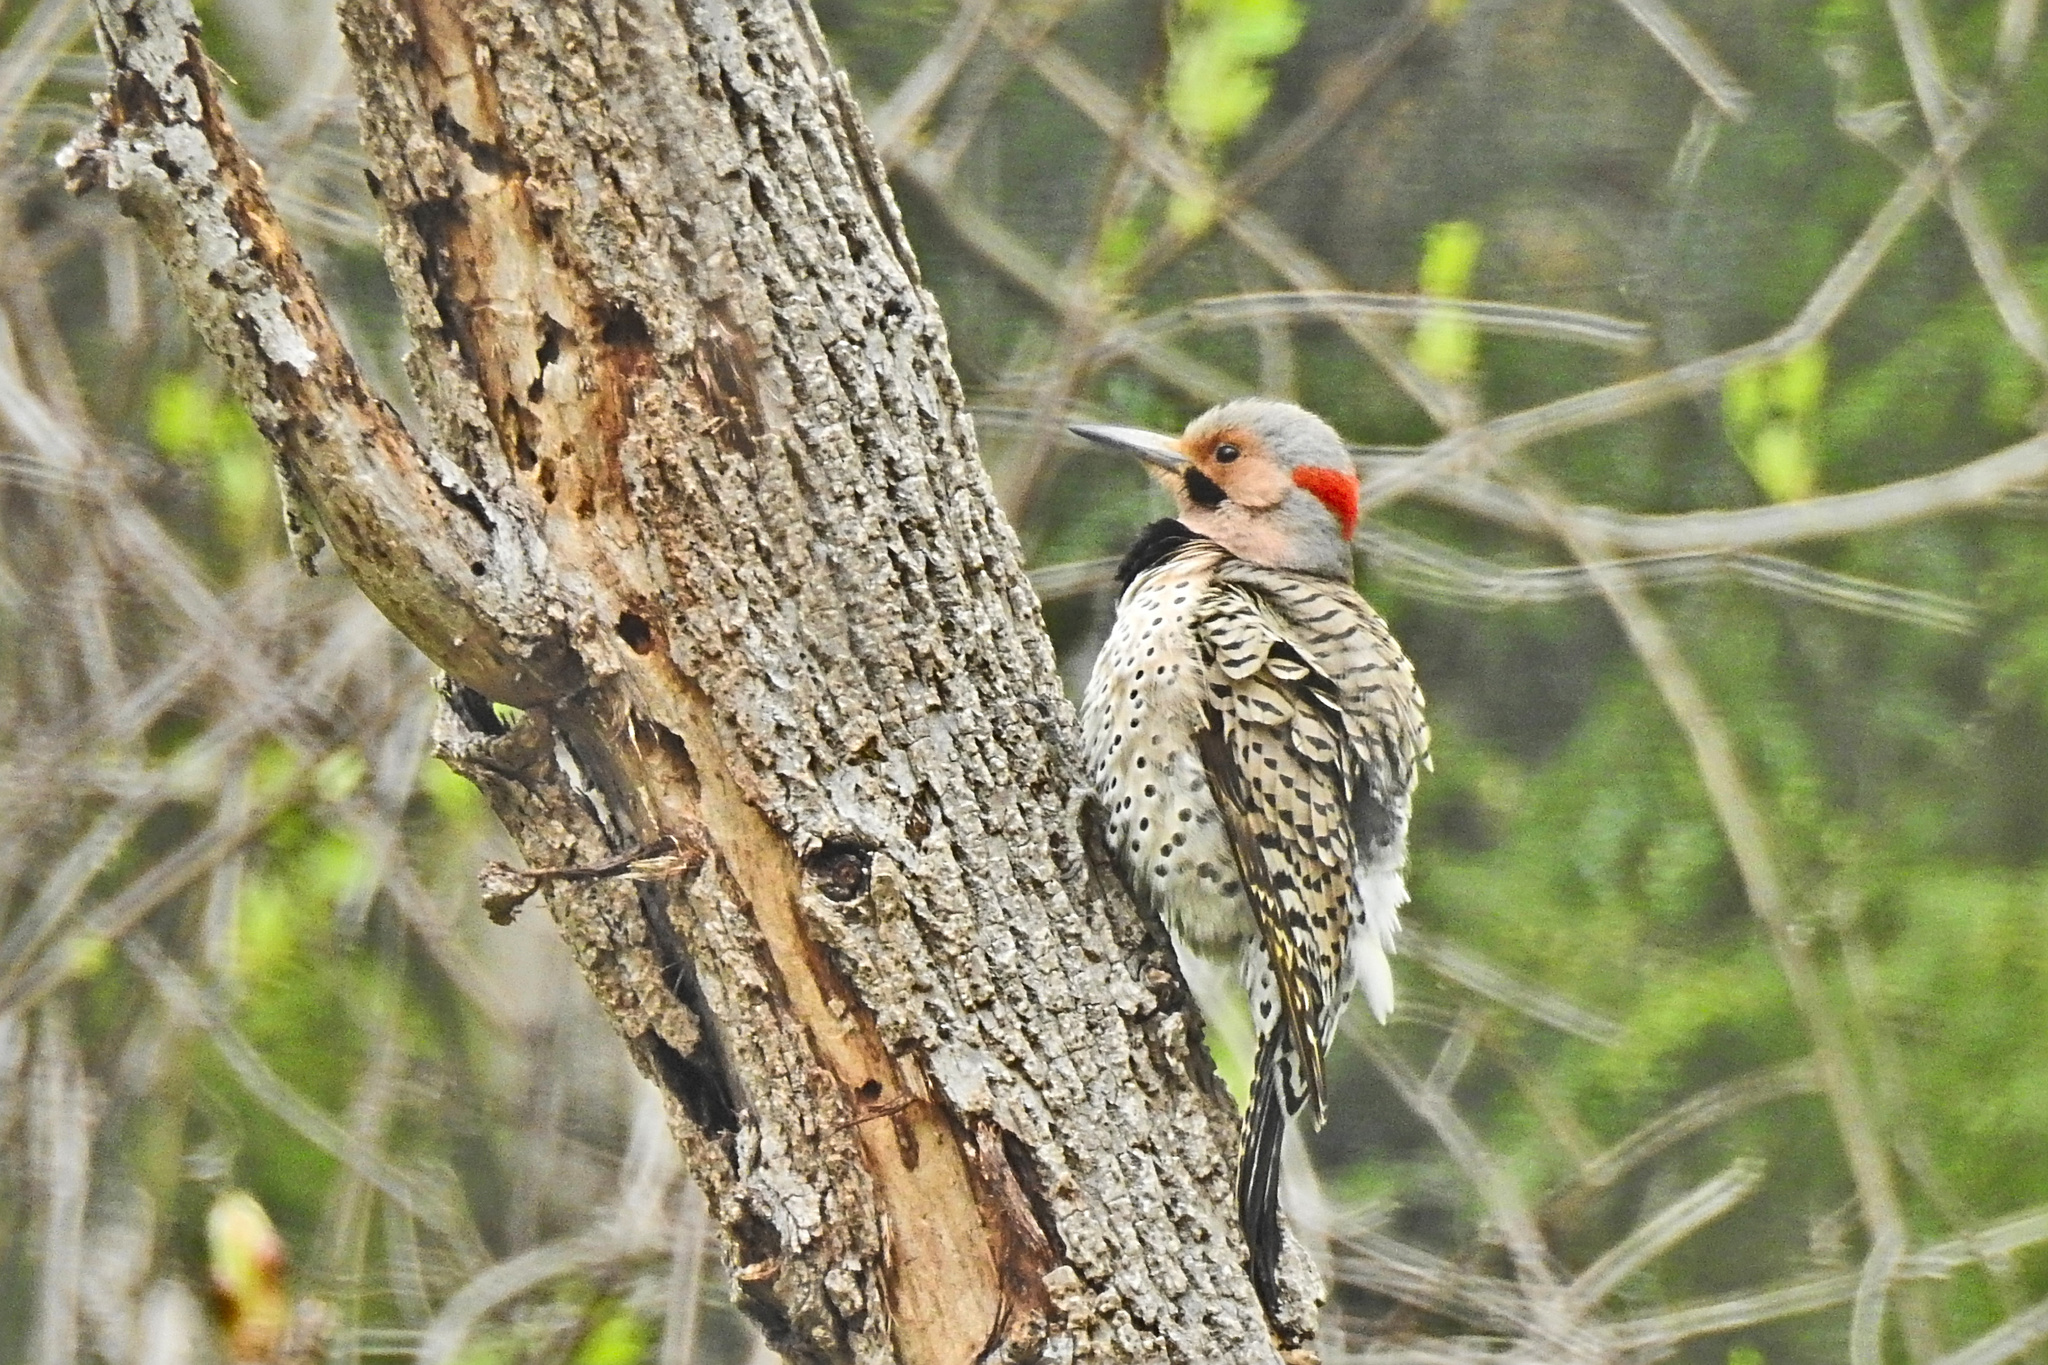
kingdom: Animalia
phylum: Chordata
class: Aves
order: Piciformes
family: Picidae
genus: Colaptes
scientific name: Colaptes auratus
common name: Northern flicker
